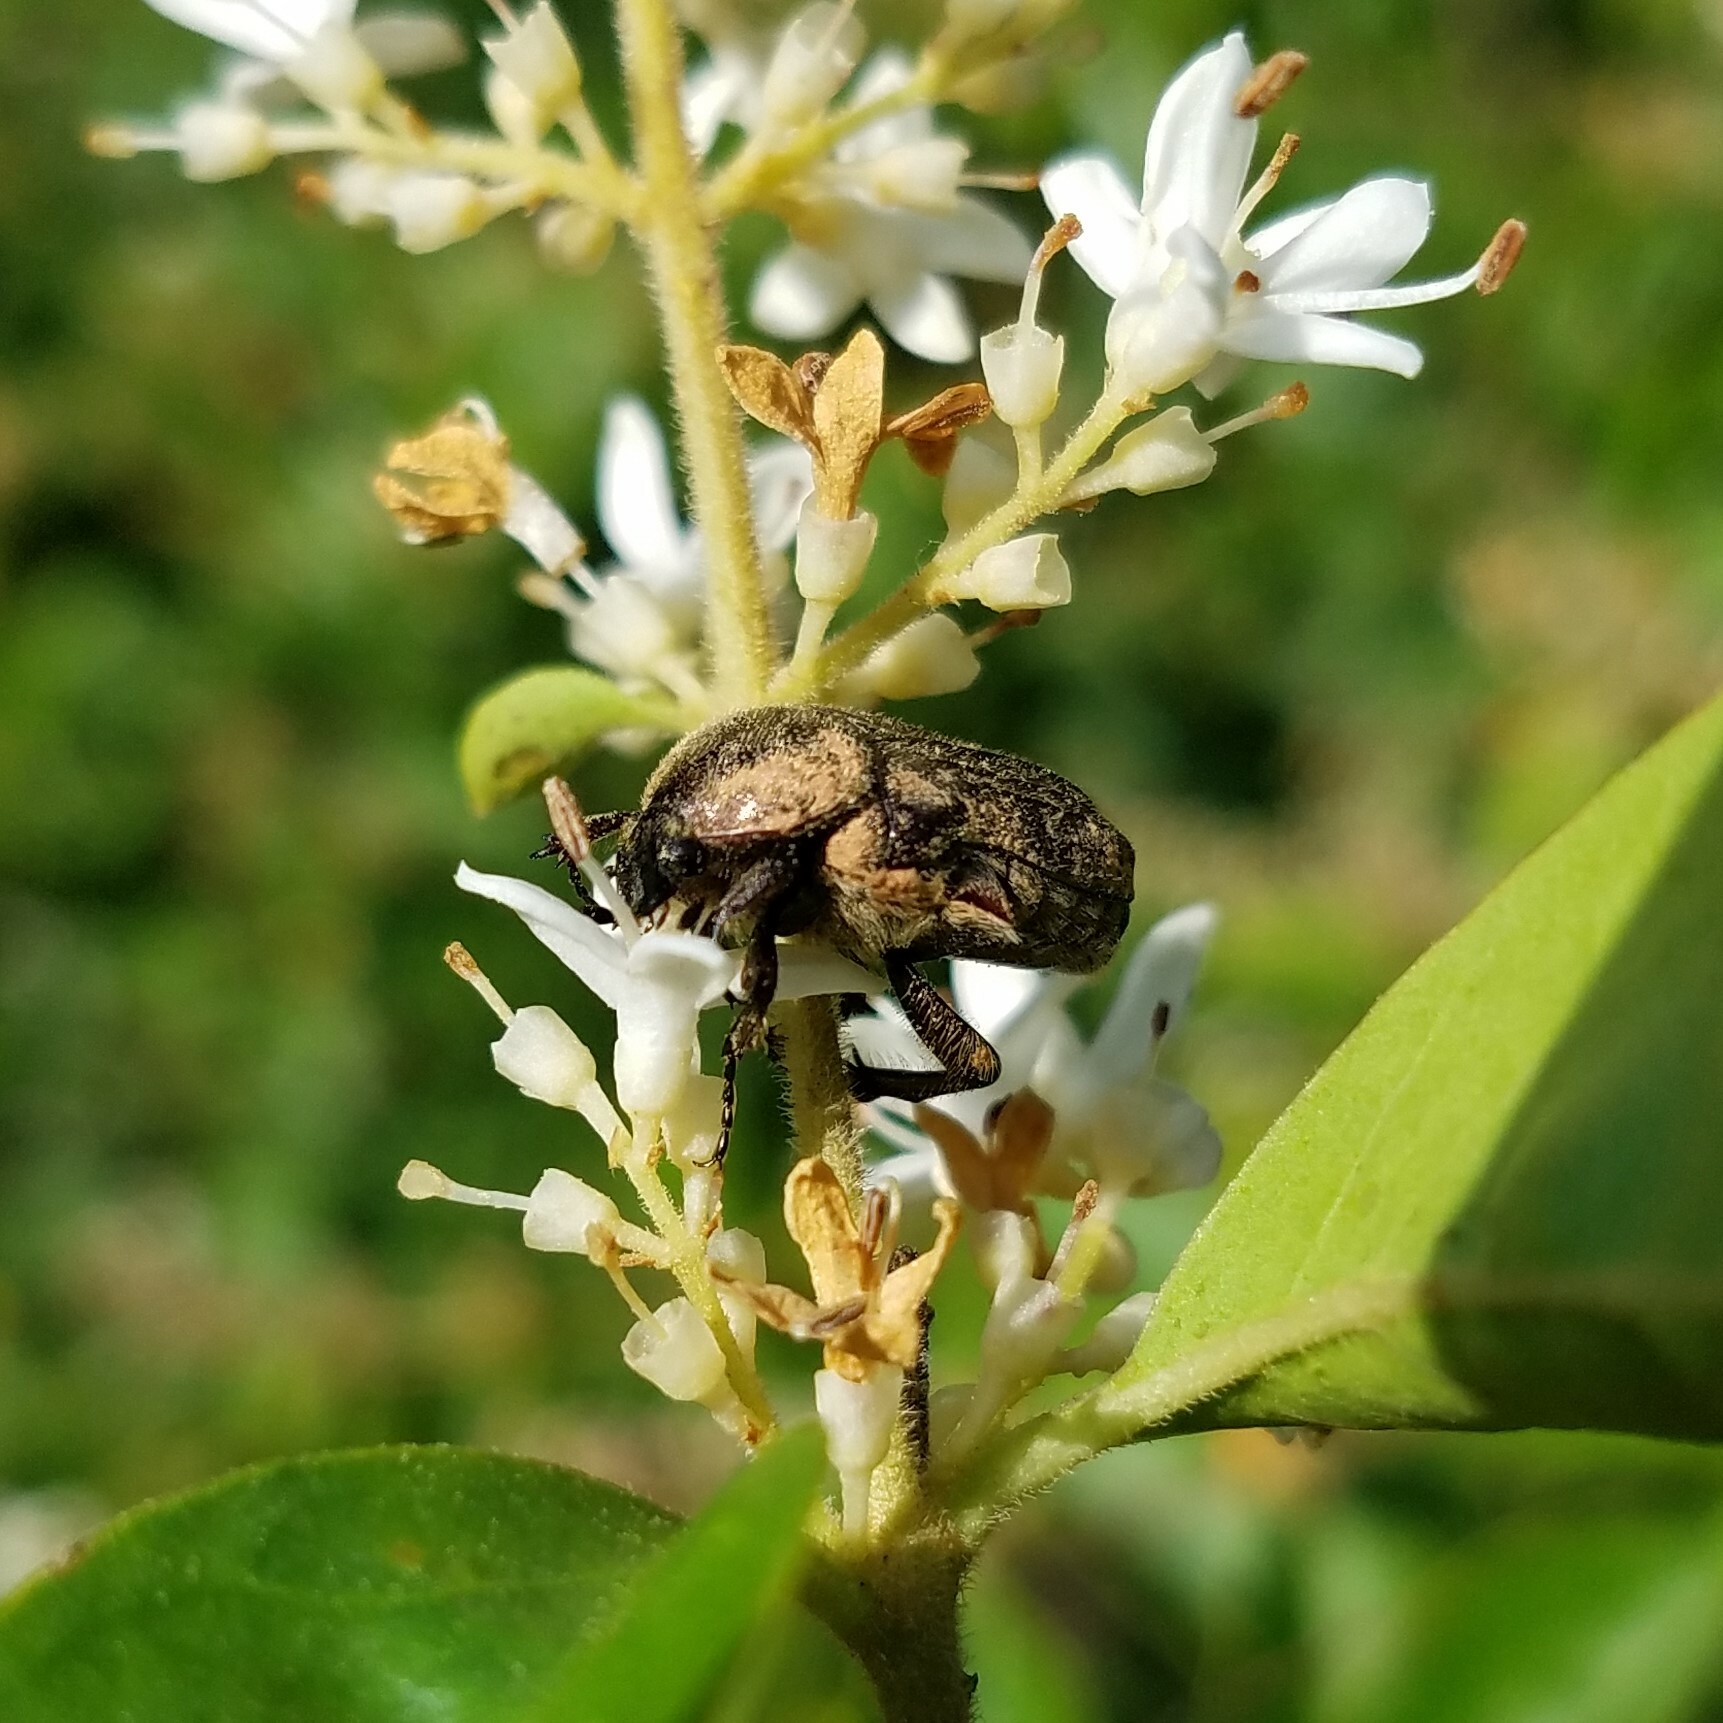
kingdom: Animalia
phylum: Arthropoda
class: Insecta
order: Coleoptera
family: Scarabaeidae
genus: Euphoria
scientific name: Euphoria sepulcralis
